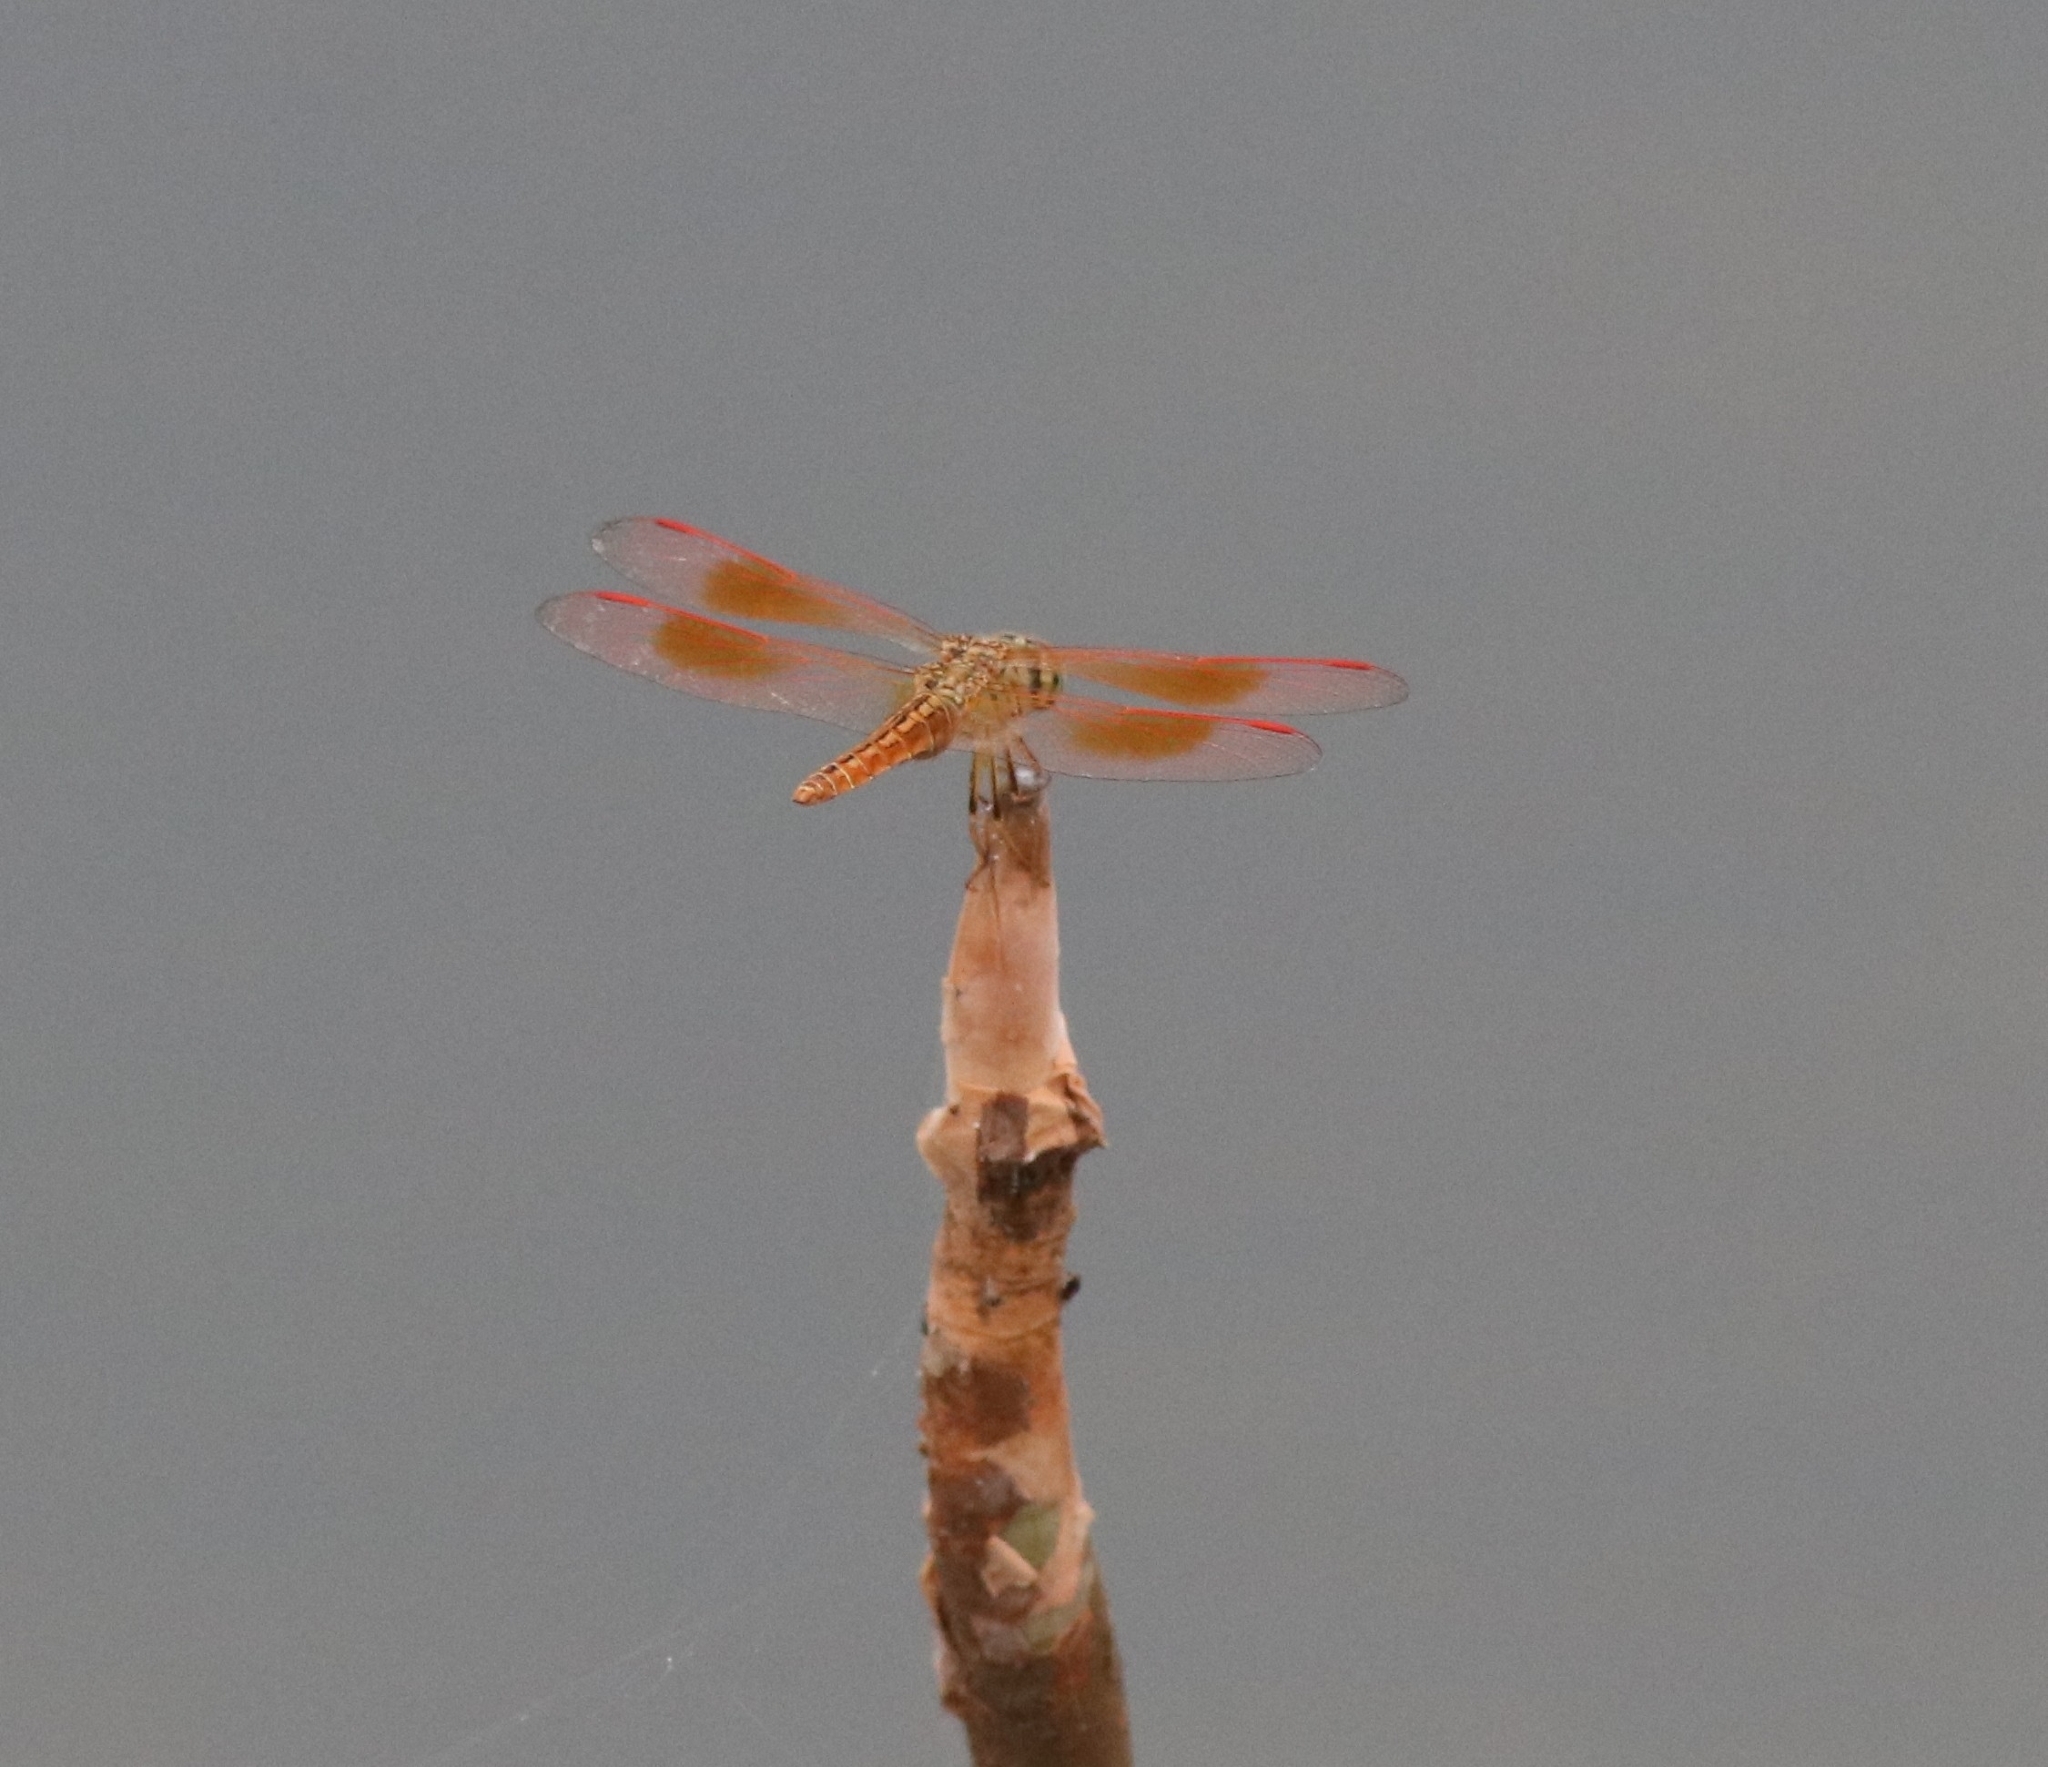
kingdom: Animalia
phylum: Arthropoda
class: Insecta
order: Odonata
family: Libellulidae
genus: Brachythemis
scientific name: Brachythemis contaminata
